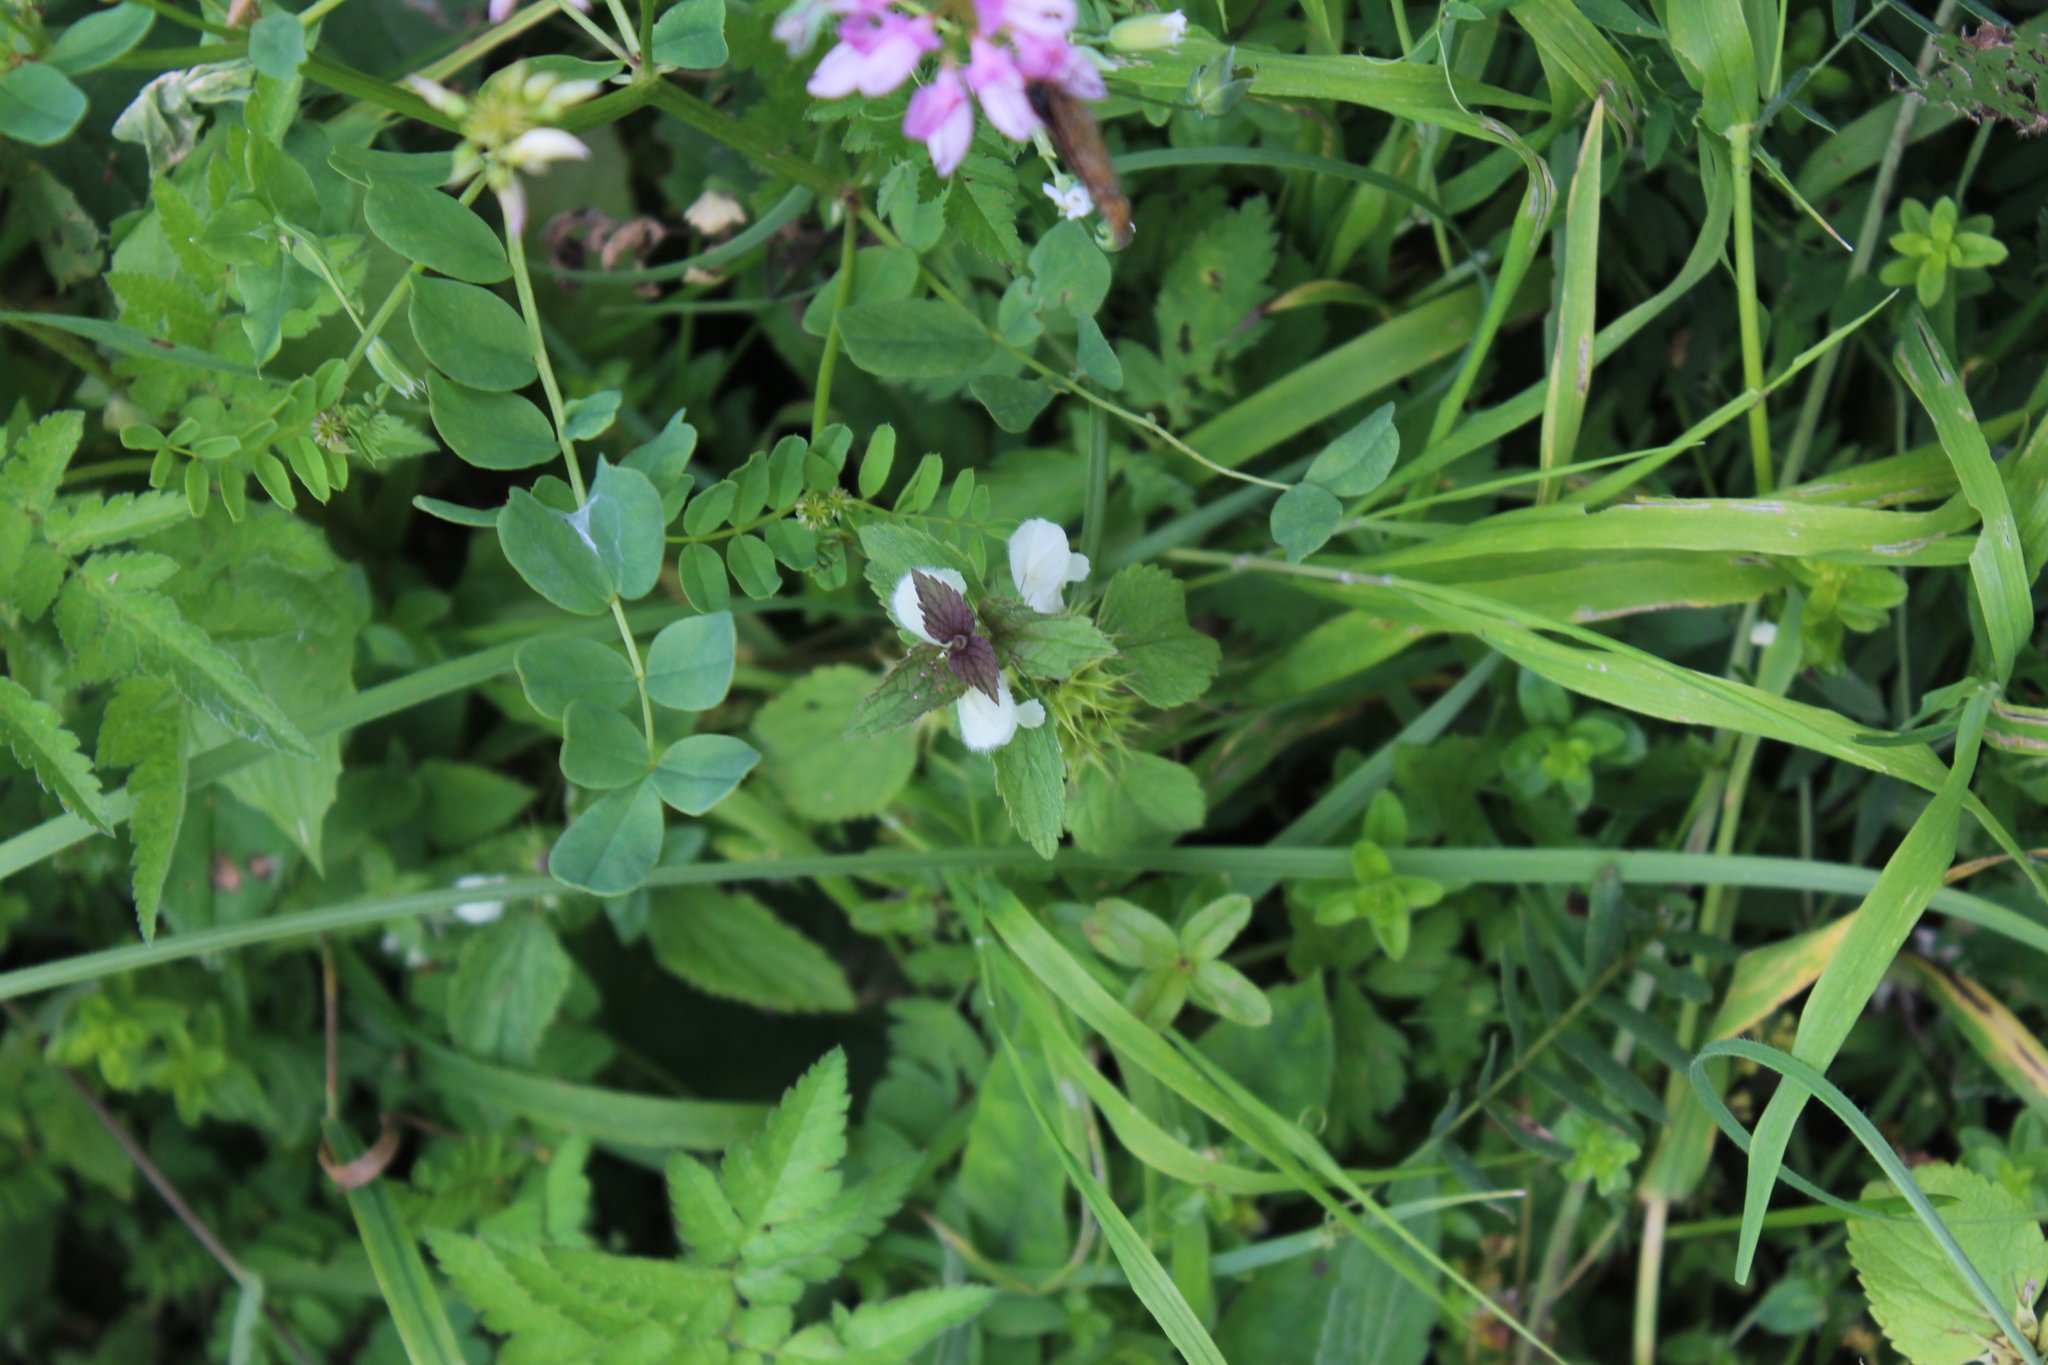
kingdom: Plantae
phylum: Tracheophyta
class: Magnoliopsida
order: Lamiales
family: Lamiaceae
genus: Lamium
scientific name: Lamium tomentosum
